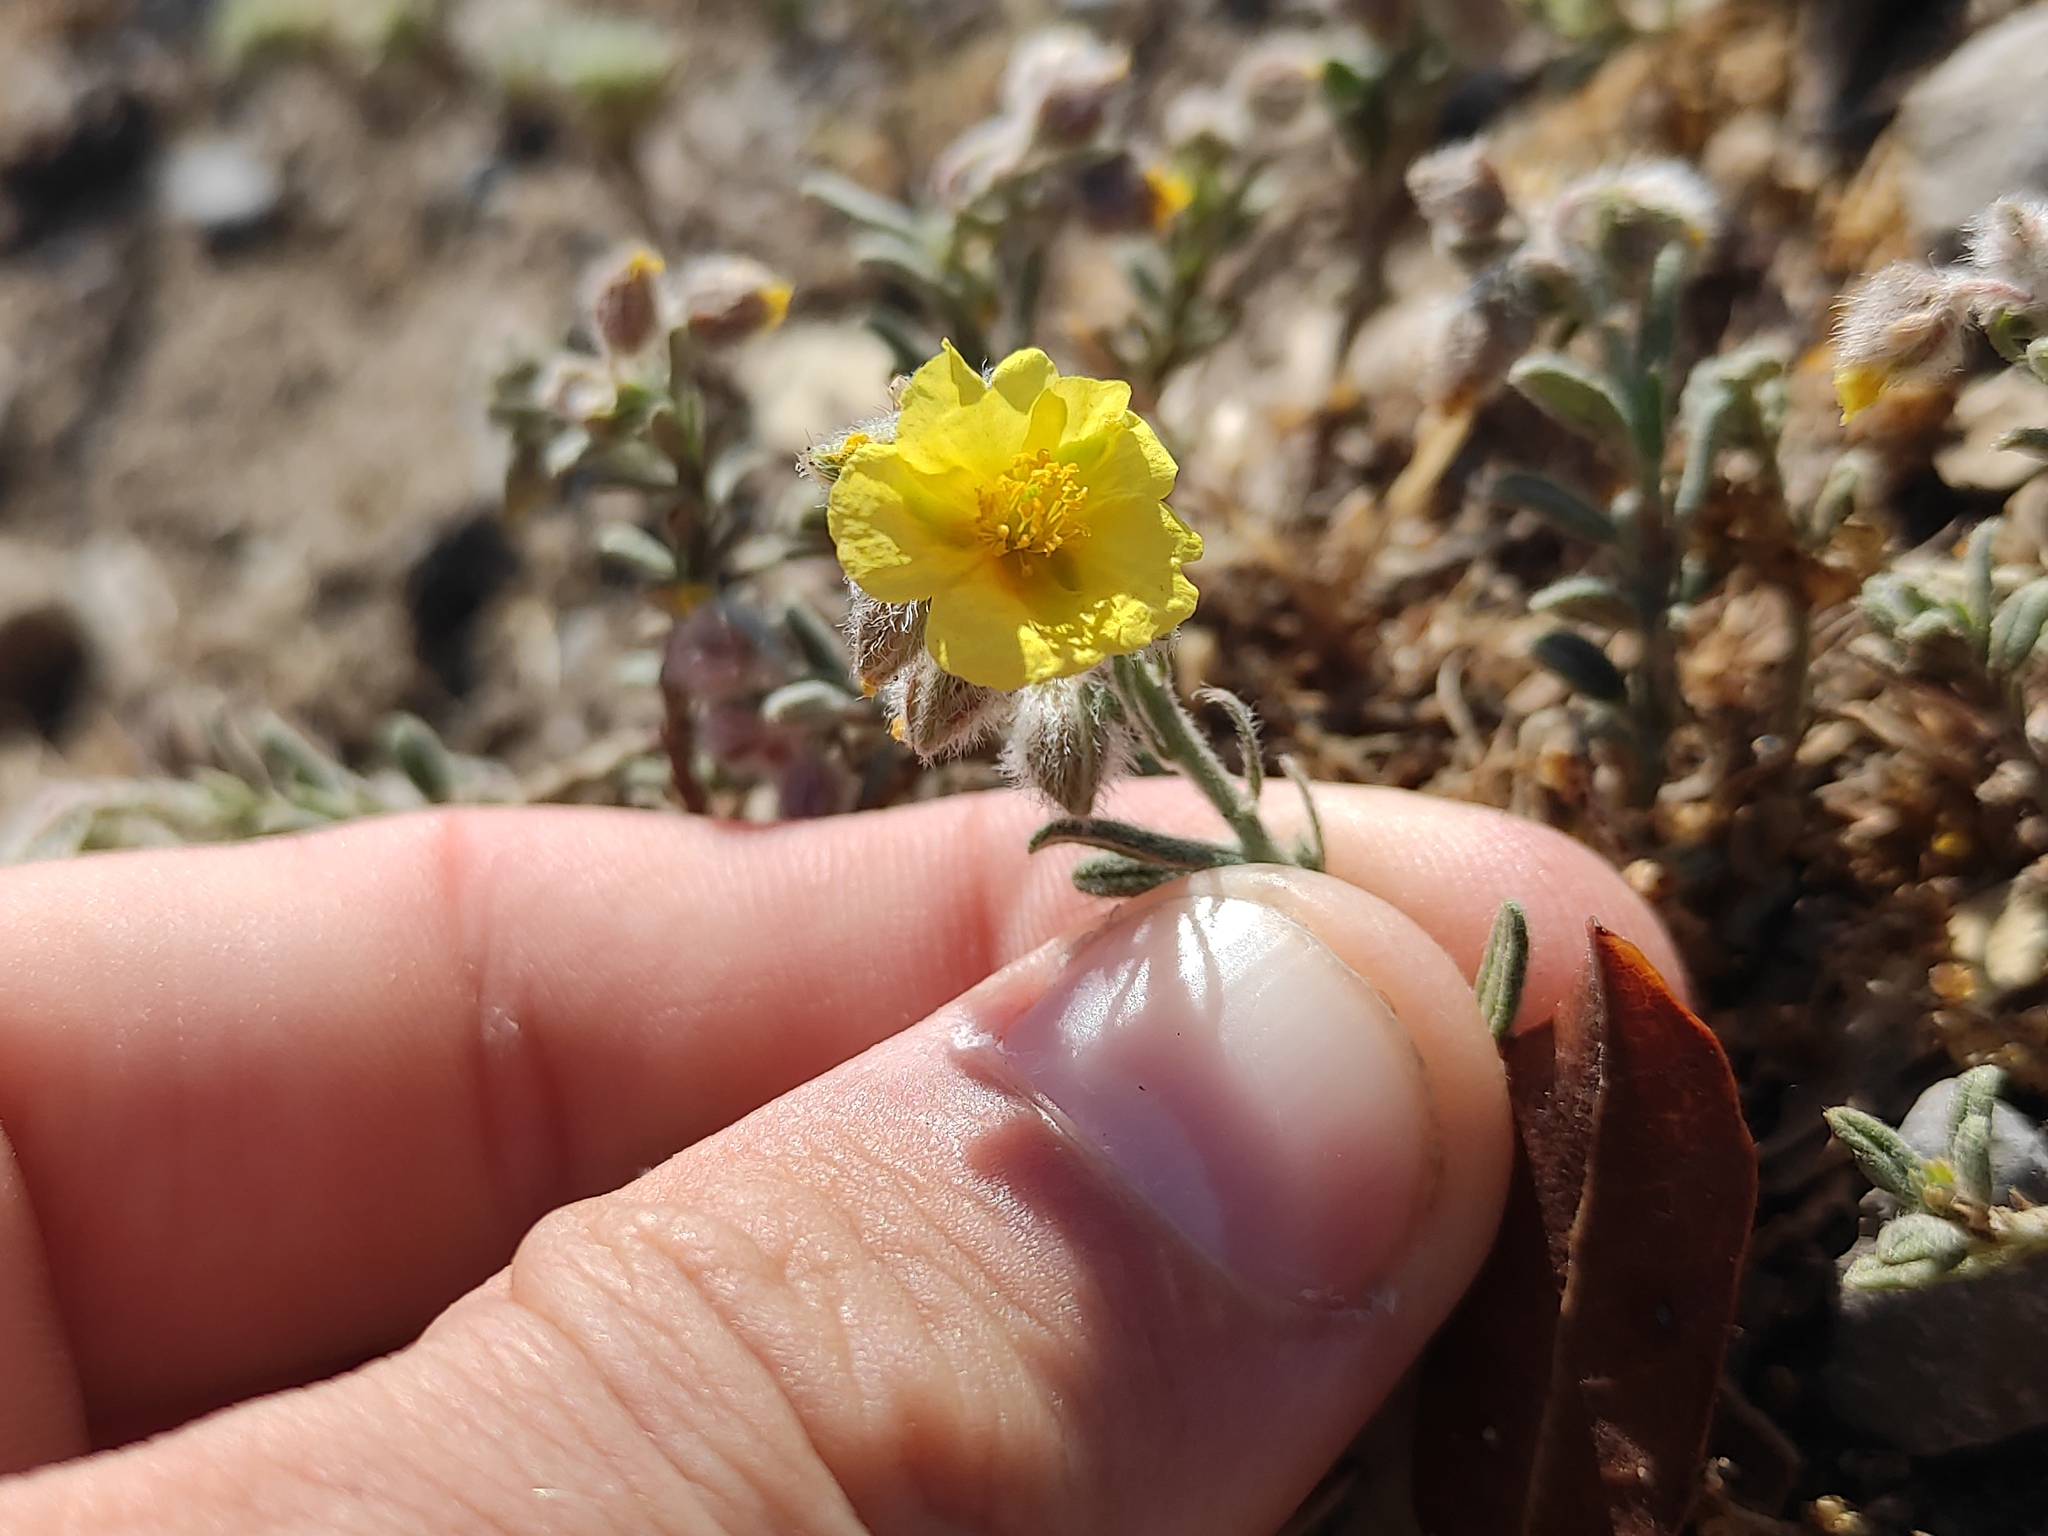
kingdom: Plantae
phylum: Tracheophyta
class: Magnoliopsida
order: Malvales
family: Cistaceae
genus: Helianthemum
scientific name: Helianthemum hirtum
